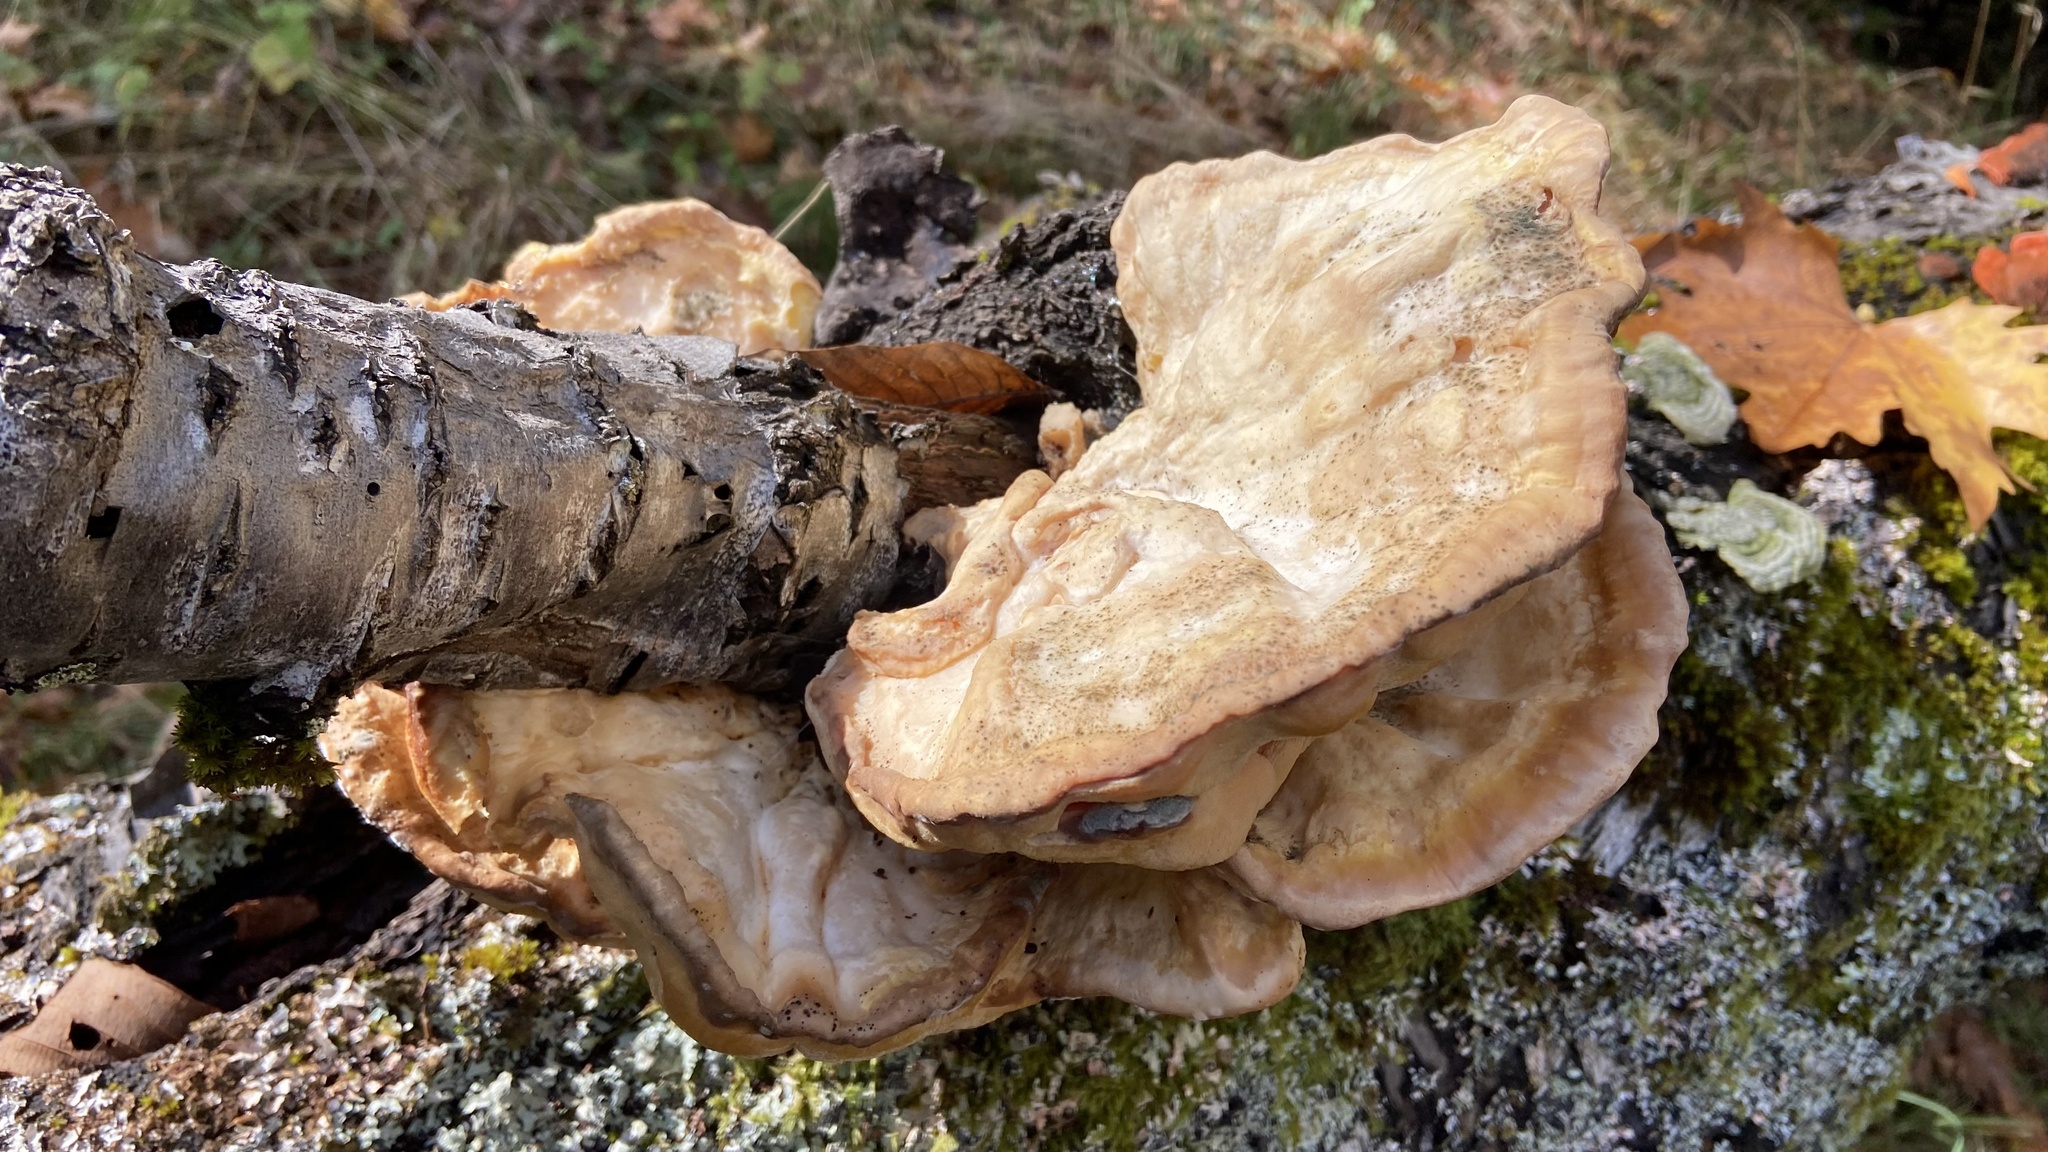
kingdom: Fungi
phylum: Basidiomycota
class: Agaricomycetes
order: Polyporales
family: Laetiporaceae
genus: Laetiporus
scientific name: Laetiporus sulphureus
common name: Chicken of the woods
